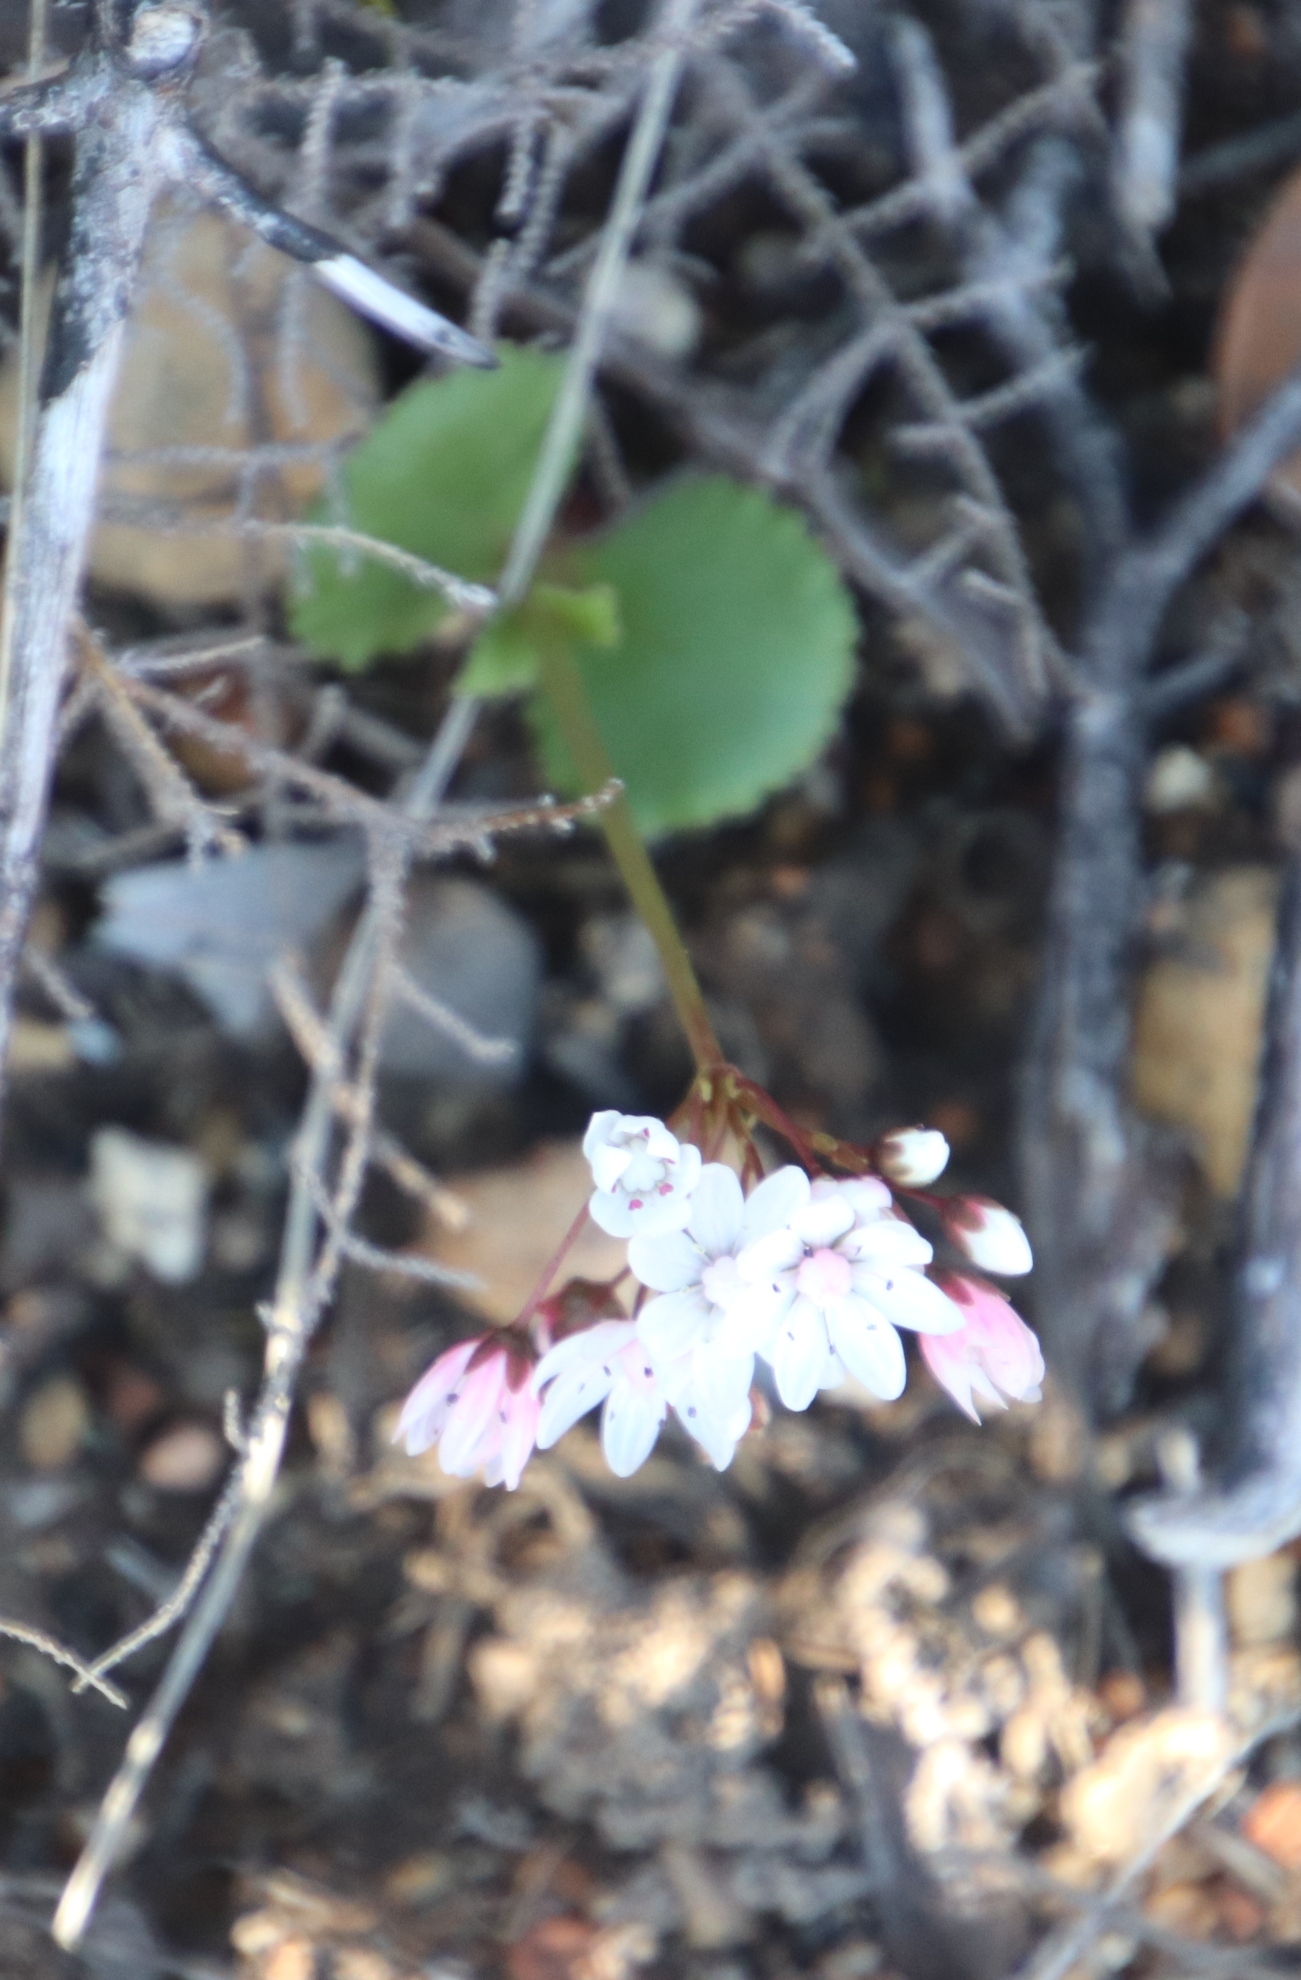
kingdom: Plantae
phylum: Tracheophyta
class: Magnoliopsida
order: Saxifragales
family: Crassulaceae
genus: Crassula
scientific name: Crassula capensis
